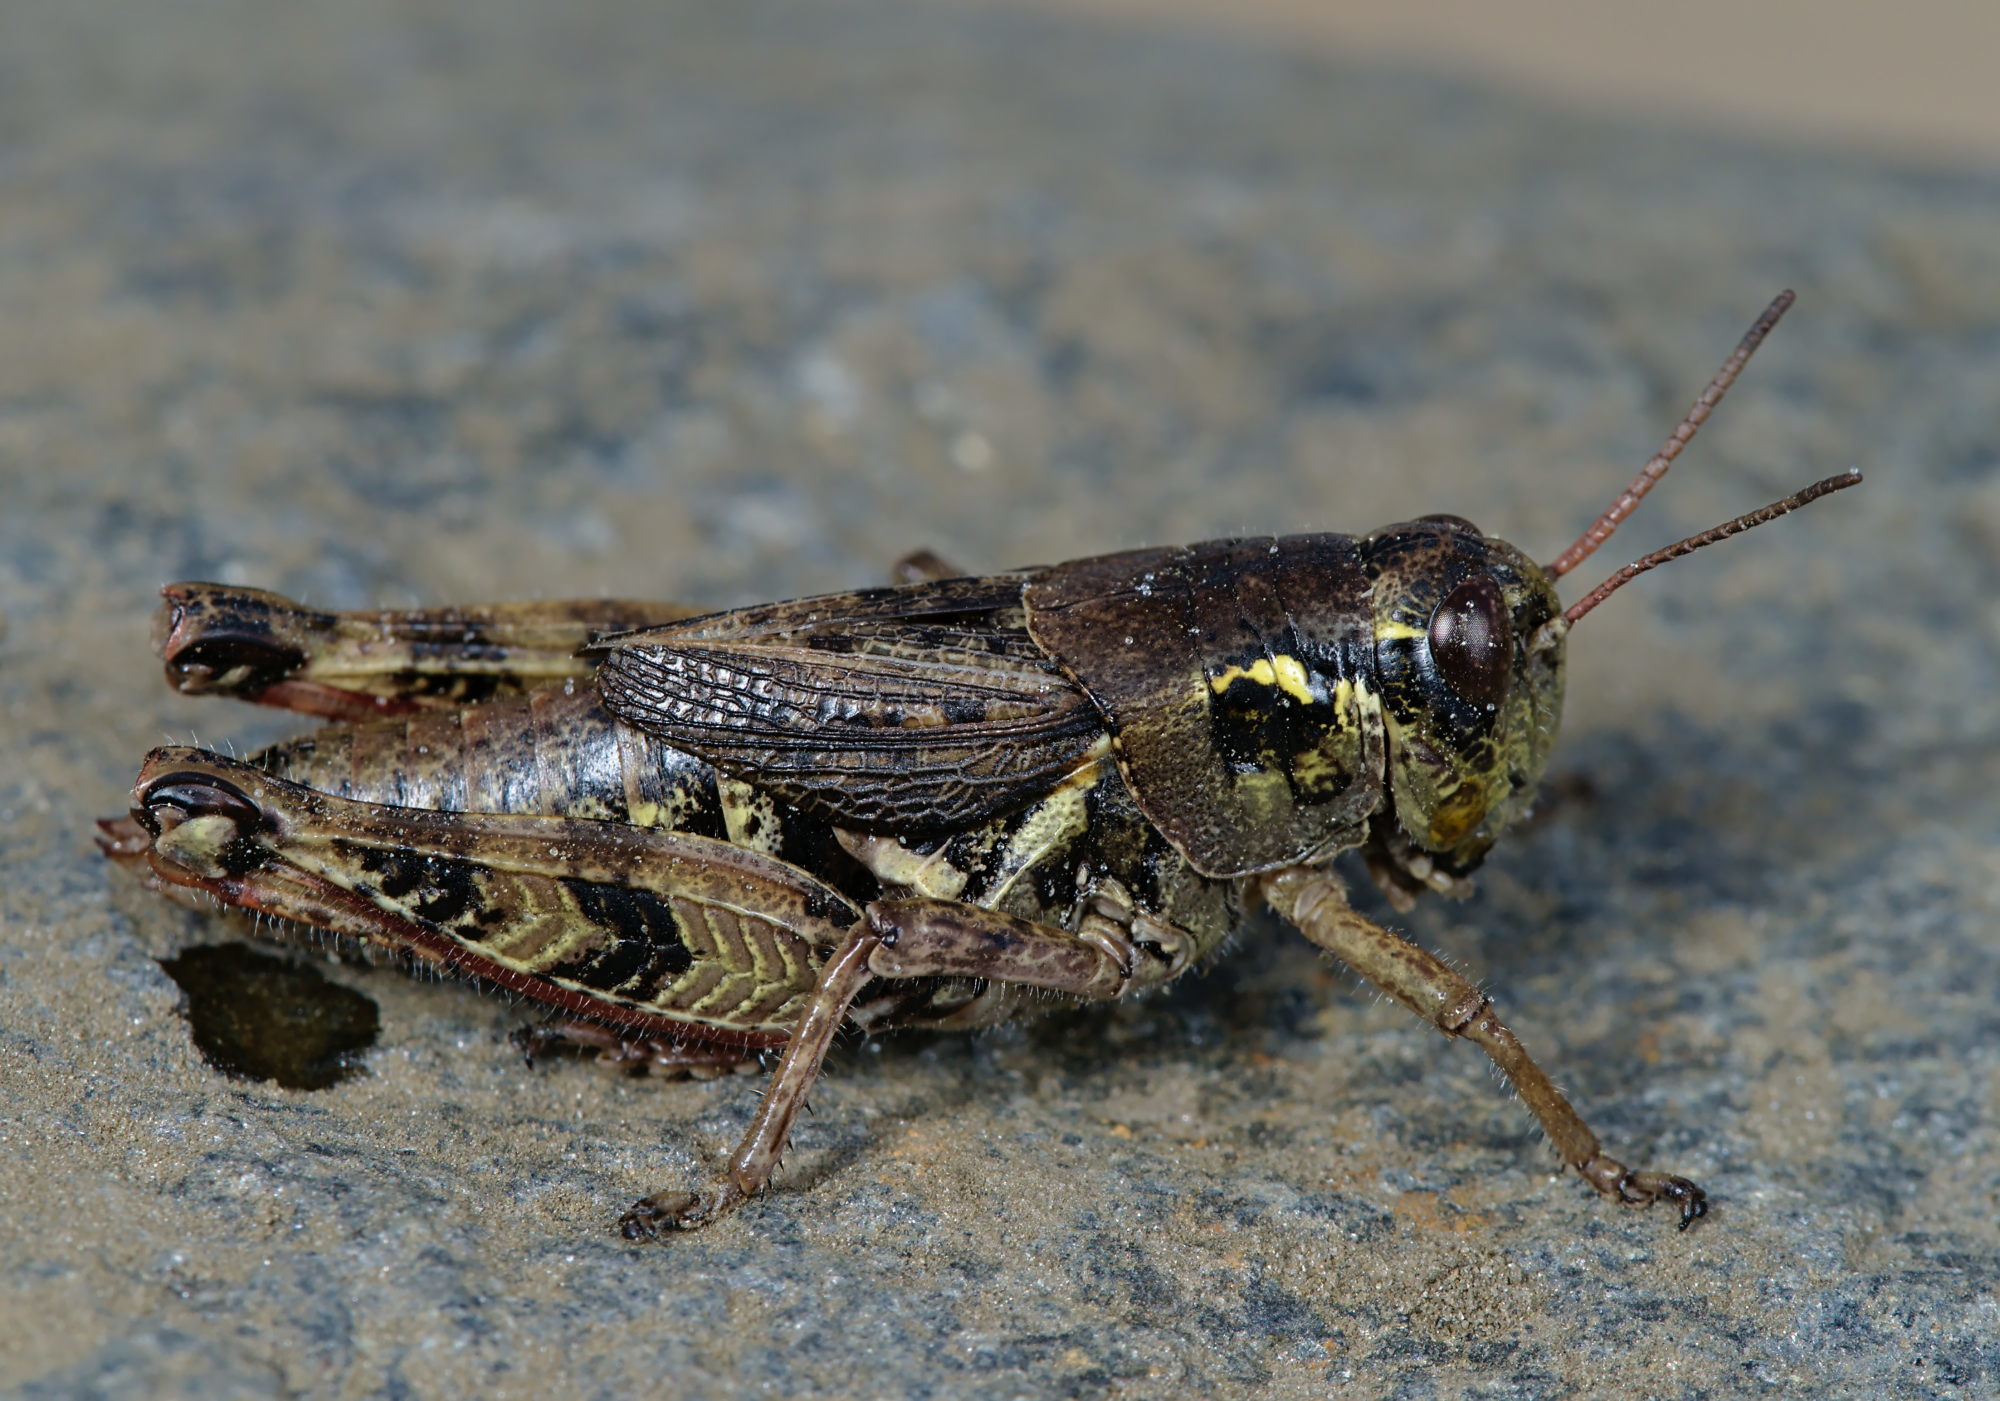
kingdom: Animalia
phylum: Arthropoda
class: Insecta
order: Orthoptera
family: Acrididae
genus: Bohemanella
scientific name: Bohemanella frigida
